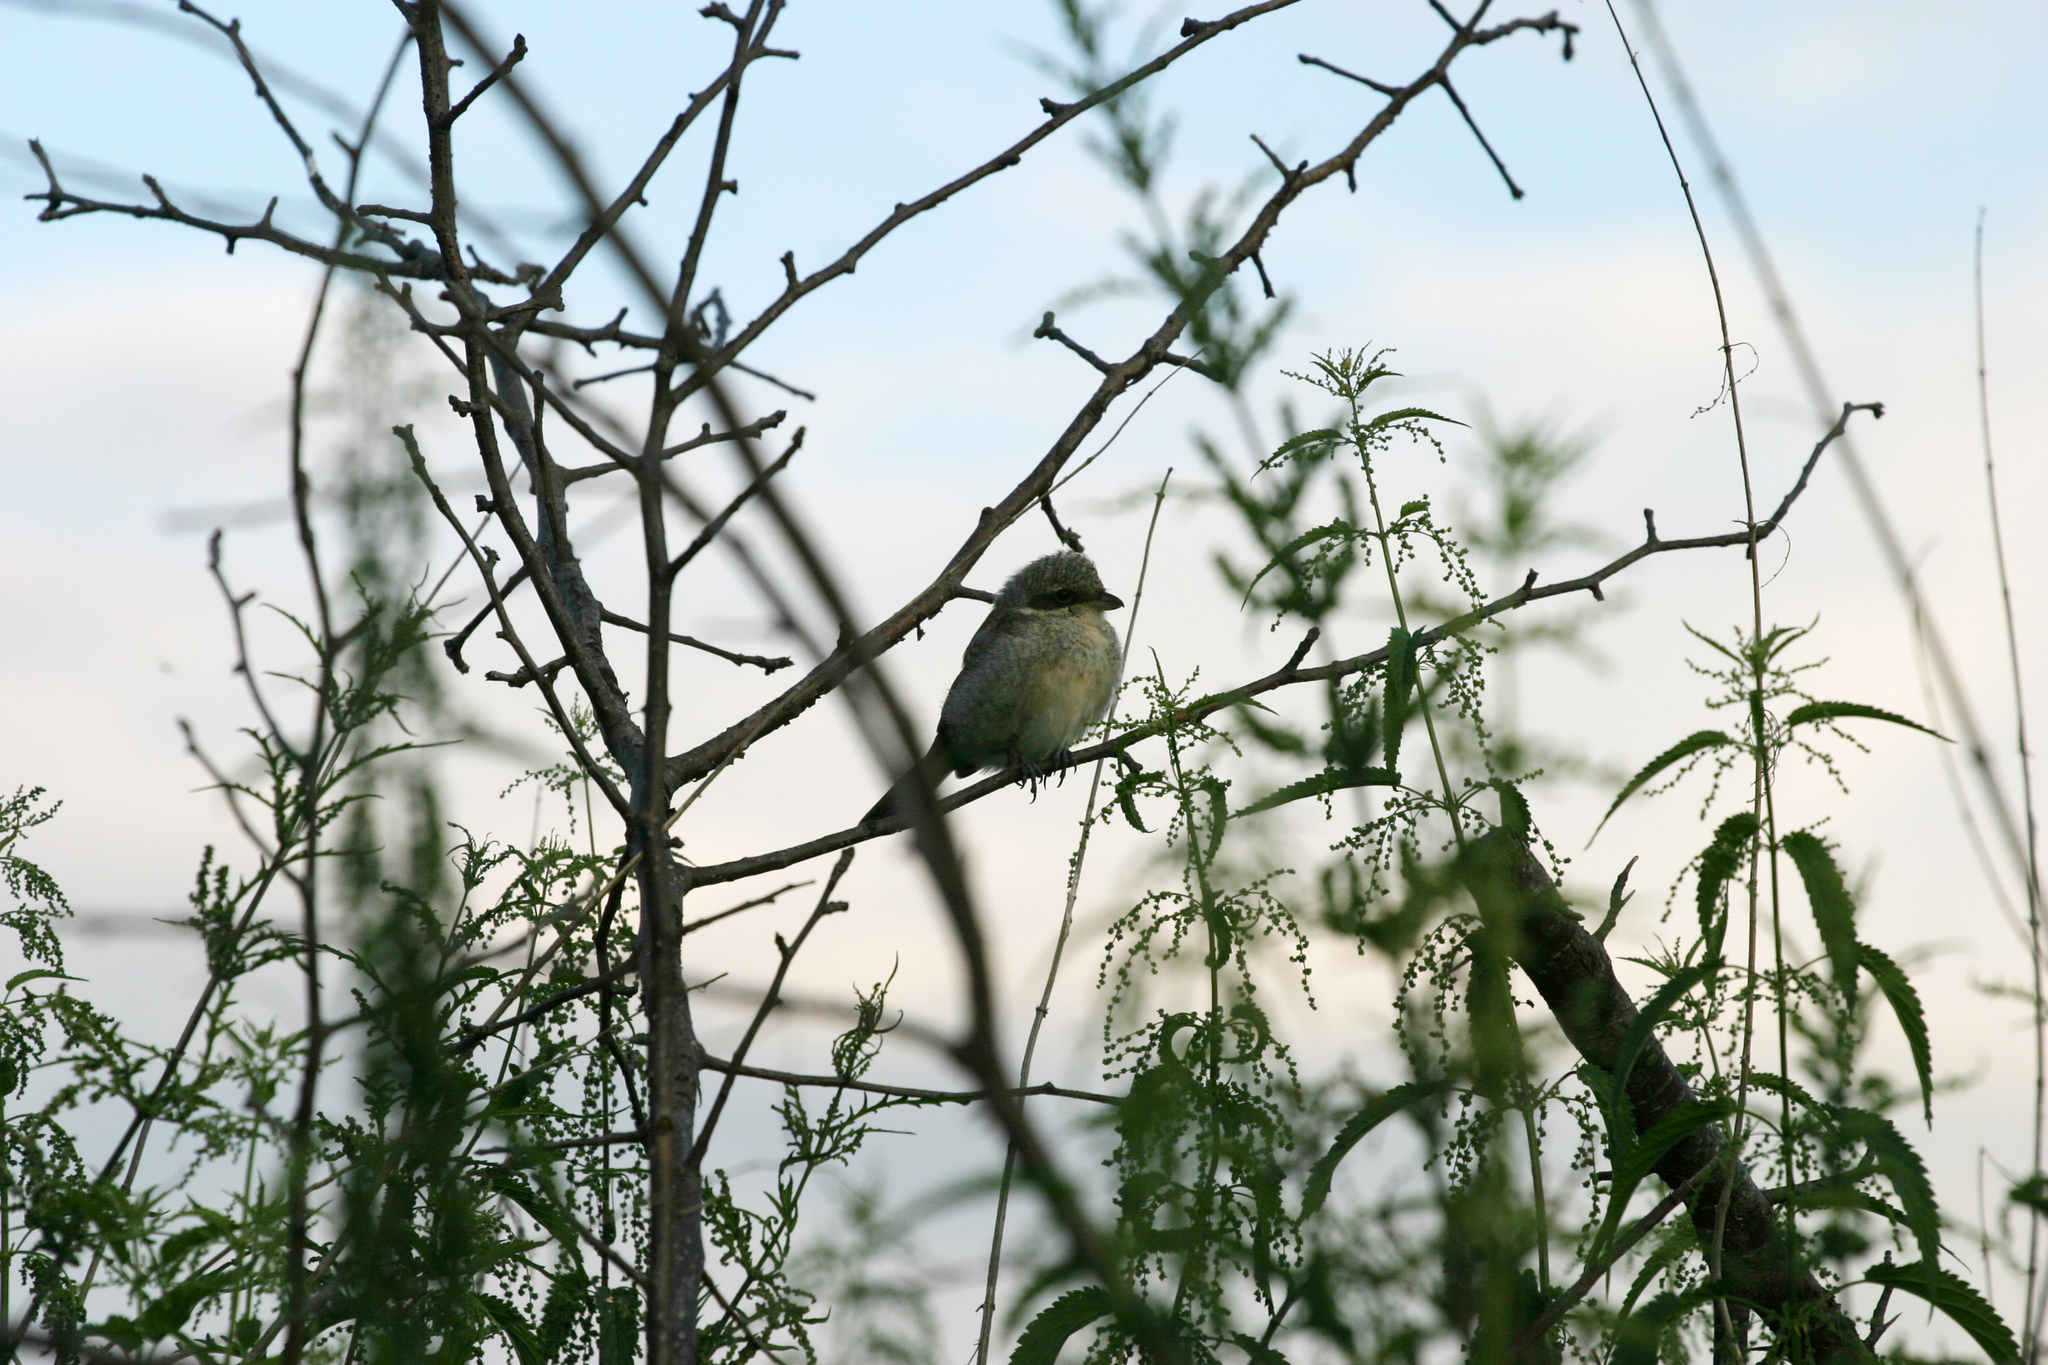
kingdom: Animalia
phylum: Chordata
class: Aves
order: Passeriformes
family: Laniidae
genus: Lanius
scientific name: Lanius collurio
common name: Red-backed shrike
